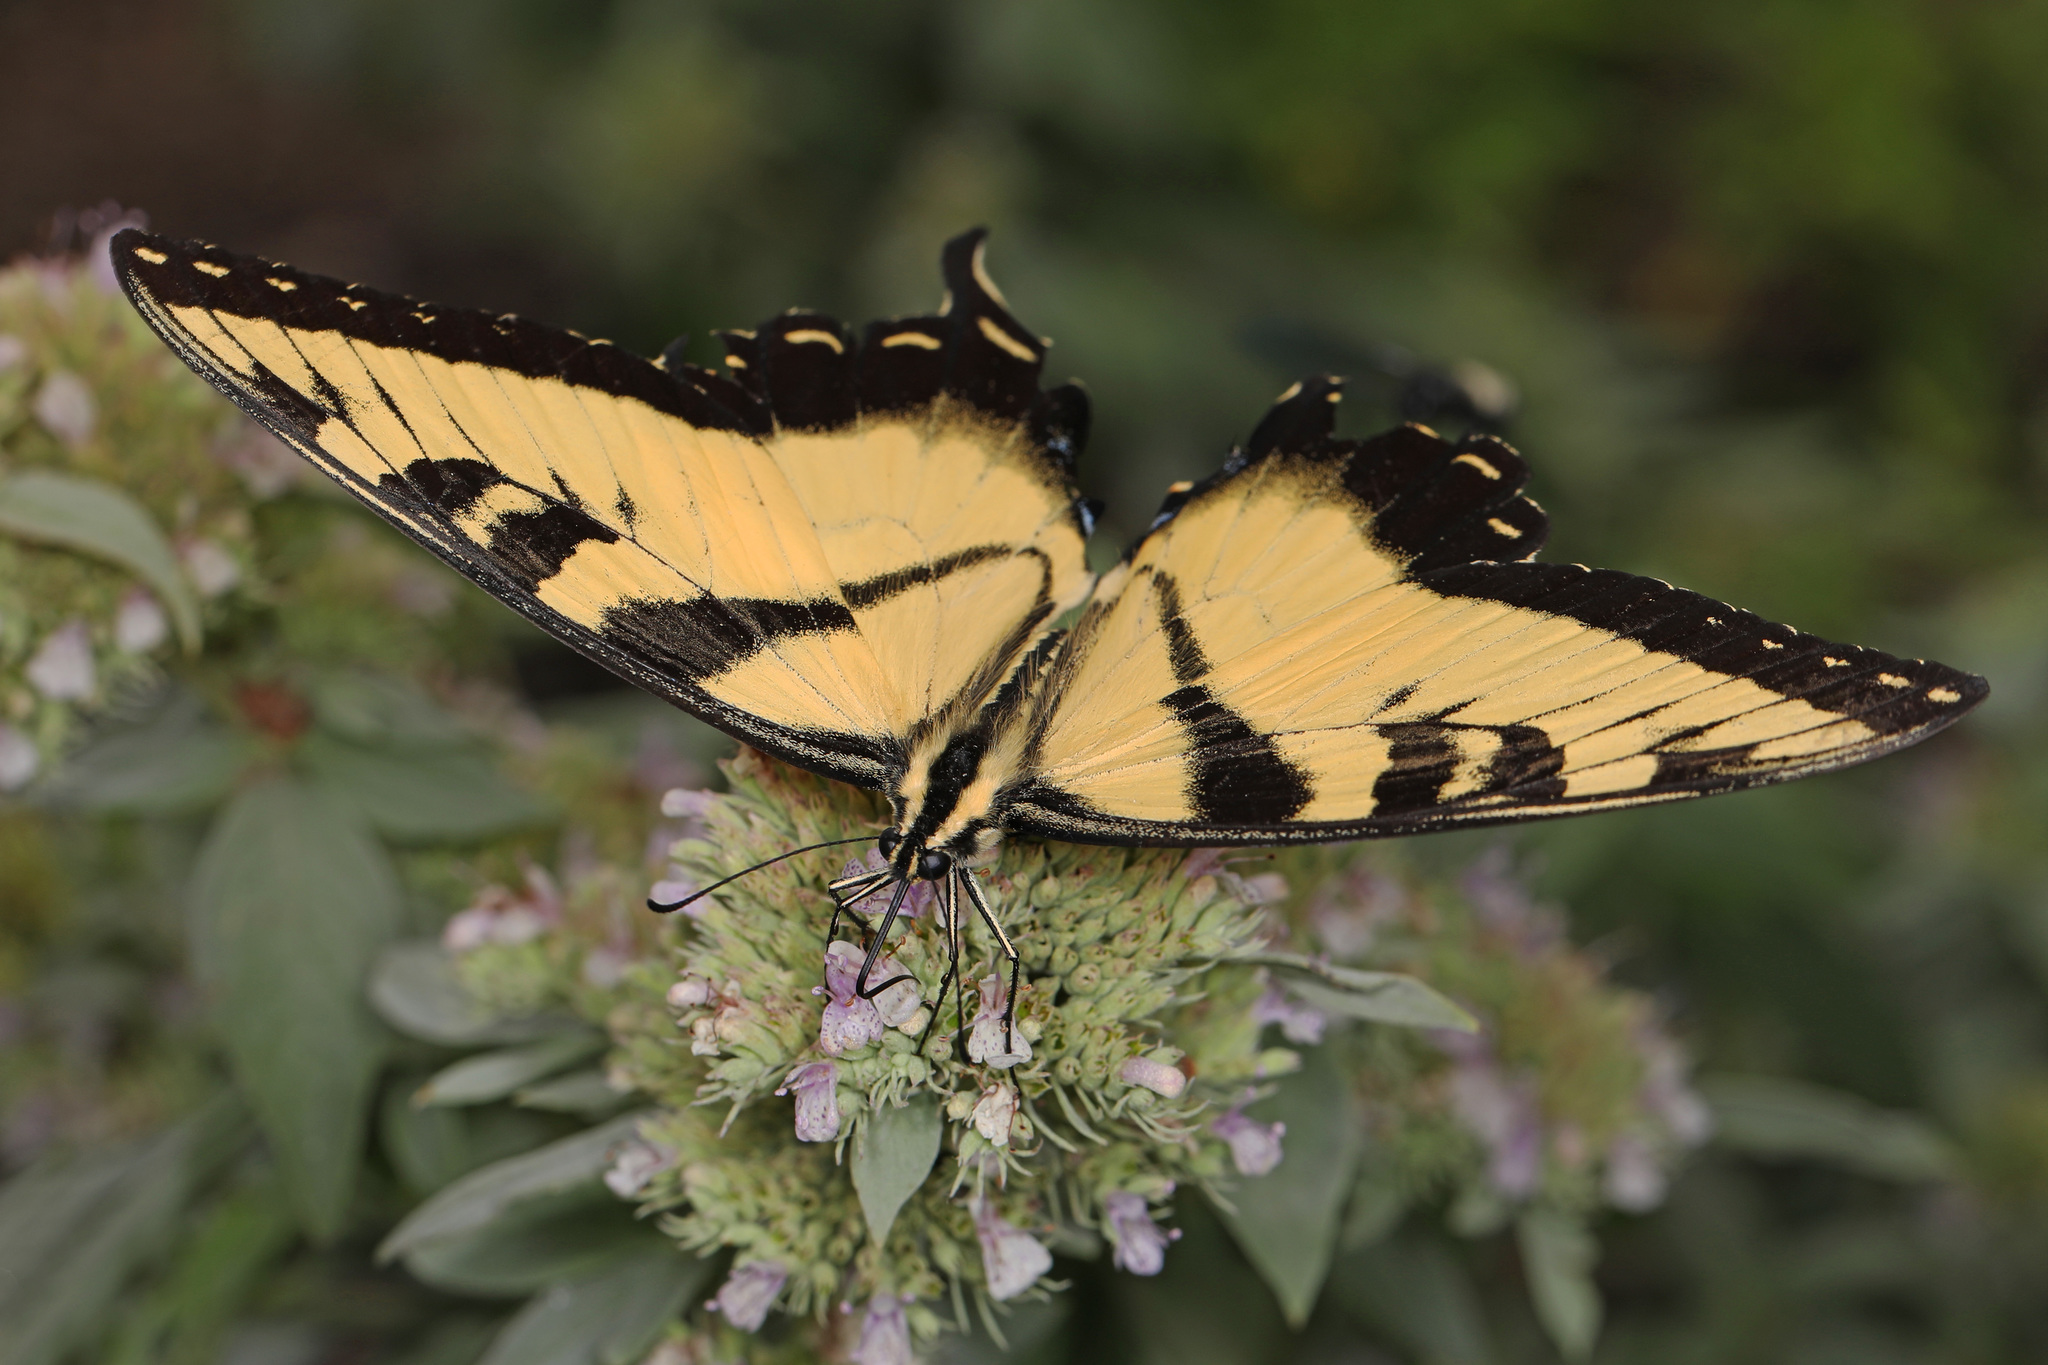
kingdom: Animalia
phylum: Arthropoda
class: Insecta
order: Lepidoptera
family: Papilionidae
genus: Papilio
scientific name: Papilio glaucus
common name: Tiger swallowtail
